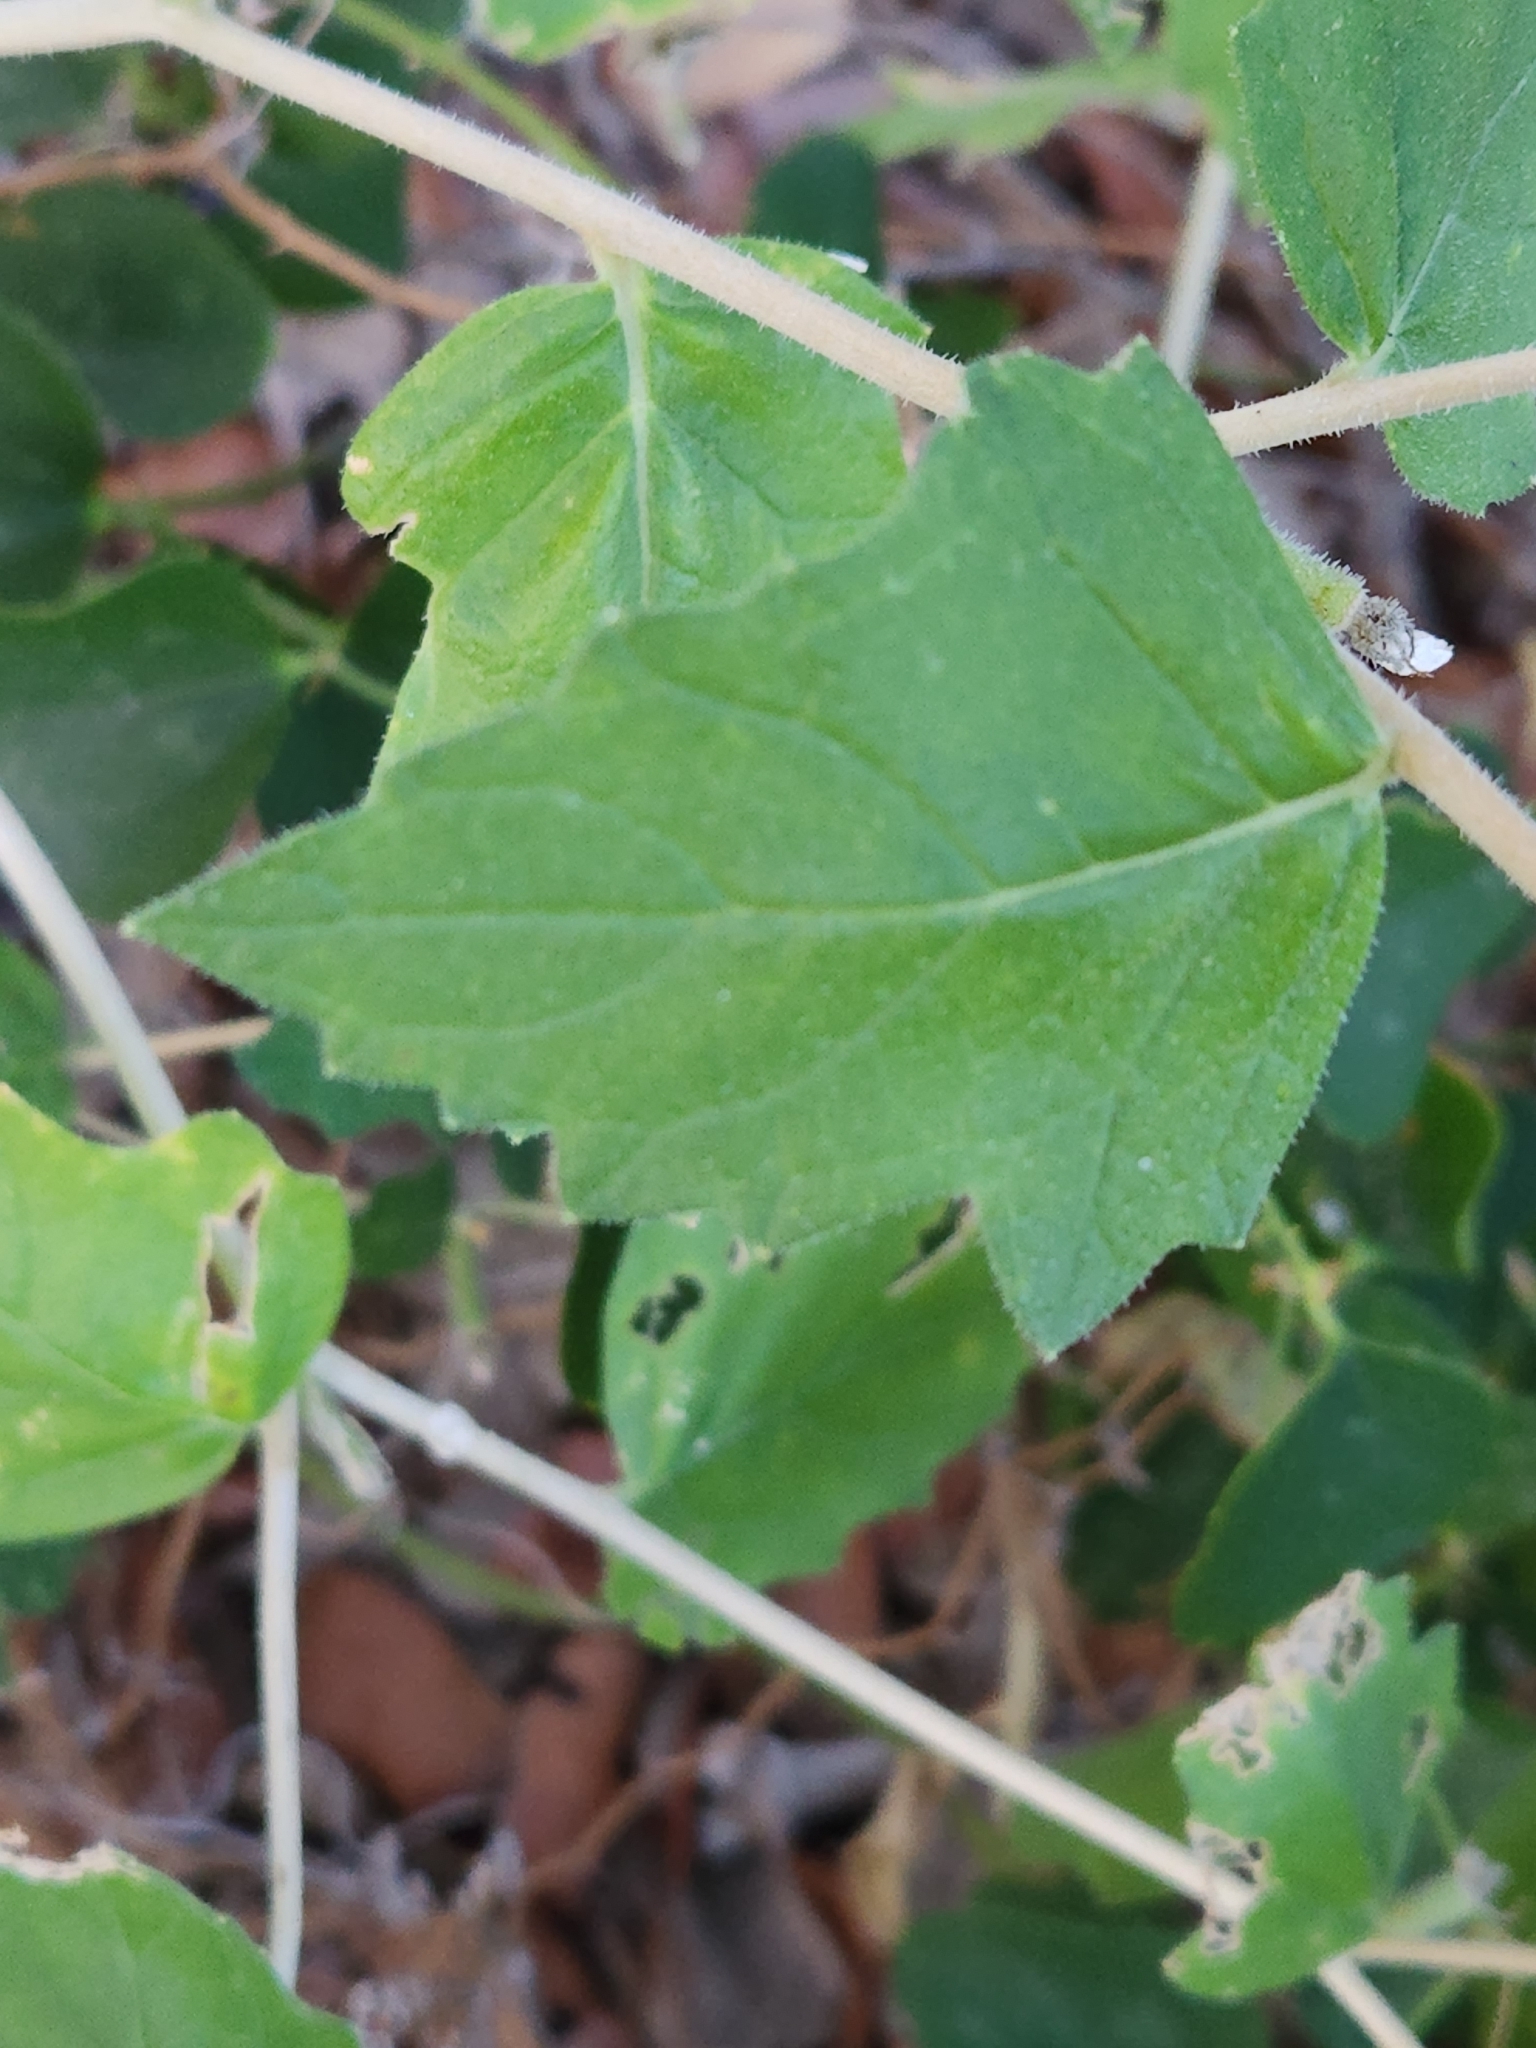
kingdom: Plantae
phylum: Tracheophyta
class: Magnoliopsida
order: Cornales
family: Loasaceae
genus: Mentzelia
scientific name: Mentzelia oligosperma
